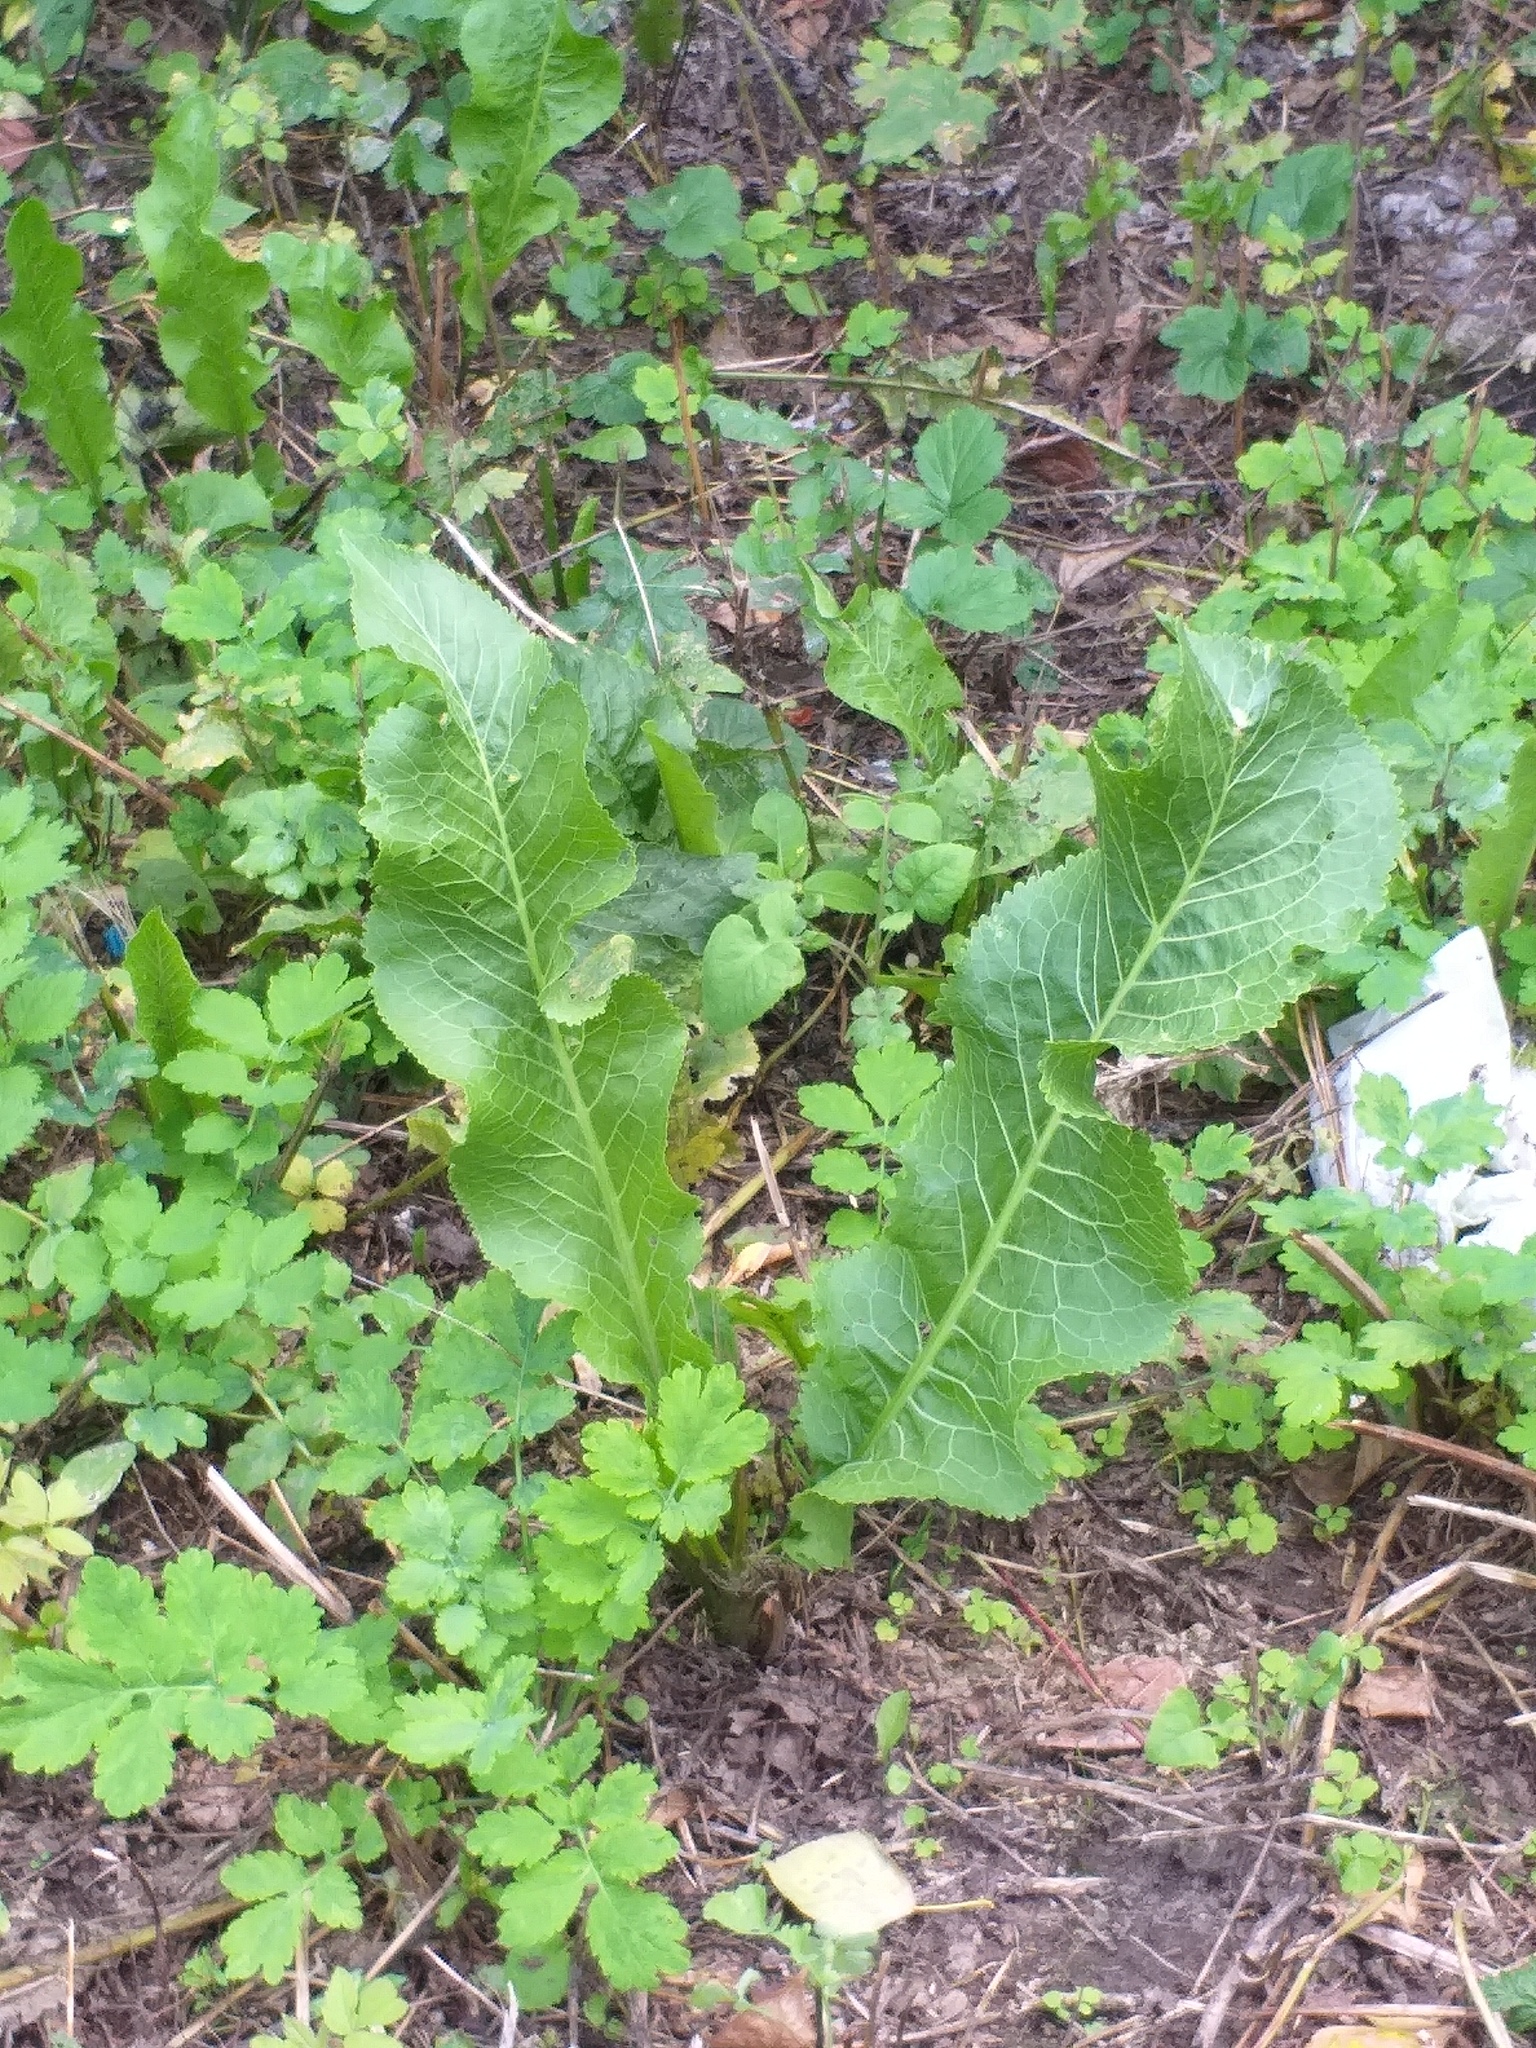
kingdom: Plantae
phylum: Tracheophyta
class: Magnoliopsida
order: Brassicales
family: Brassicaceae
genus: Armoracia
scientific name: Armoracia rusticana
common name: Horseradish
